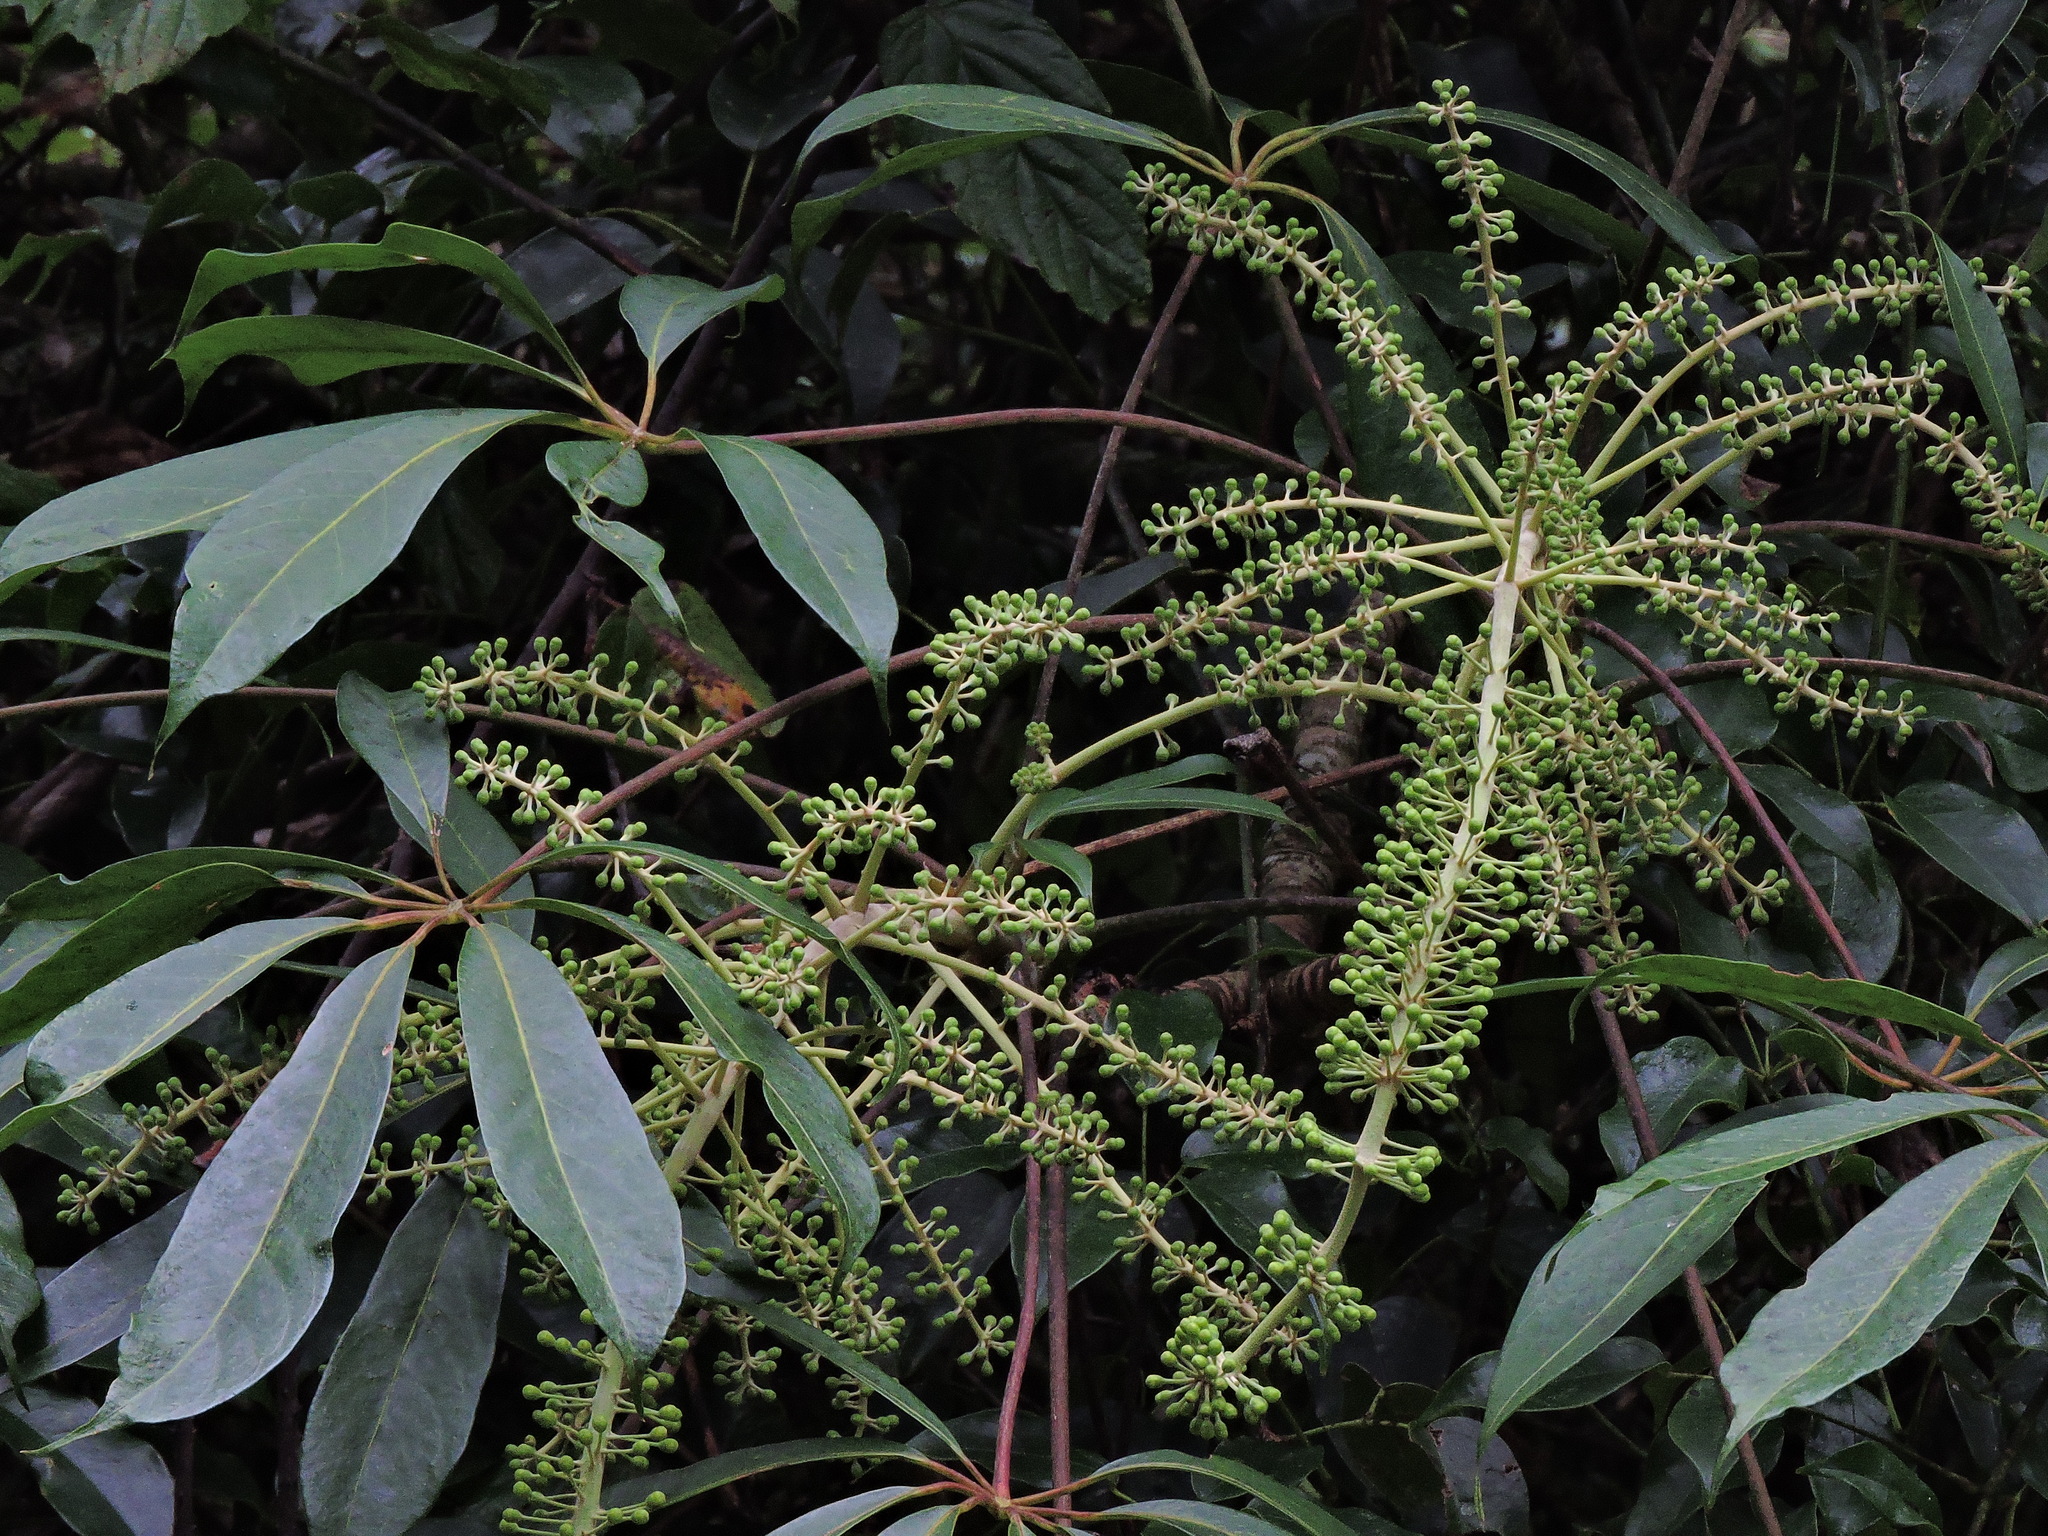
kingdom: Plantae
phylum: Tracheophyta
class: Magnoliopsida
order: Apiales
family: Araliaceae
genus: Heptapleurum
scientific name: Heptapleurum taiwanianum
